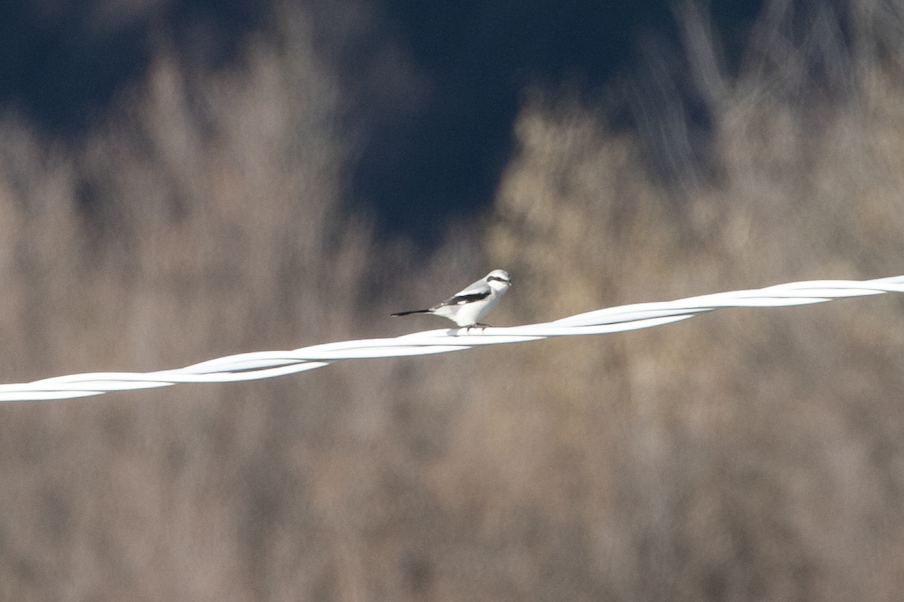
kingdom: Animalia
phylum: Chordata
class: Aves
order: Passeriformes
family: Laniidae
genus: Lanius
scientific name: Lanius excubitor
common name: Great grey shrike
